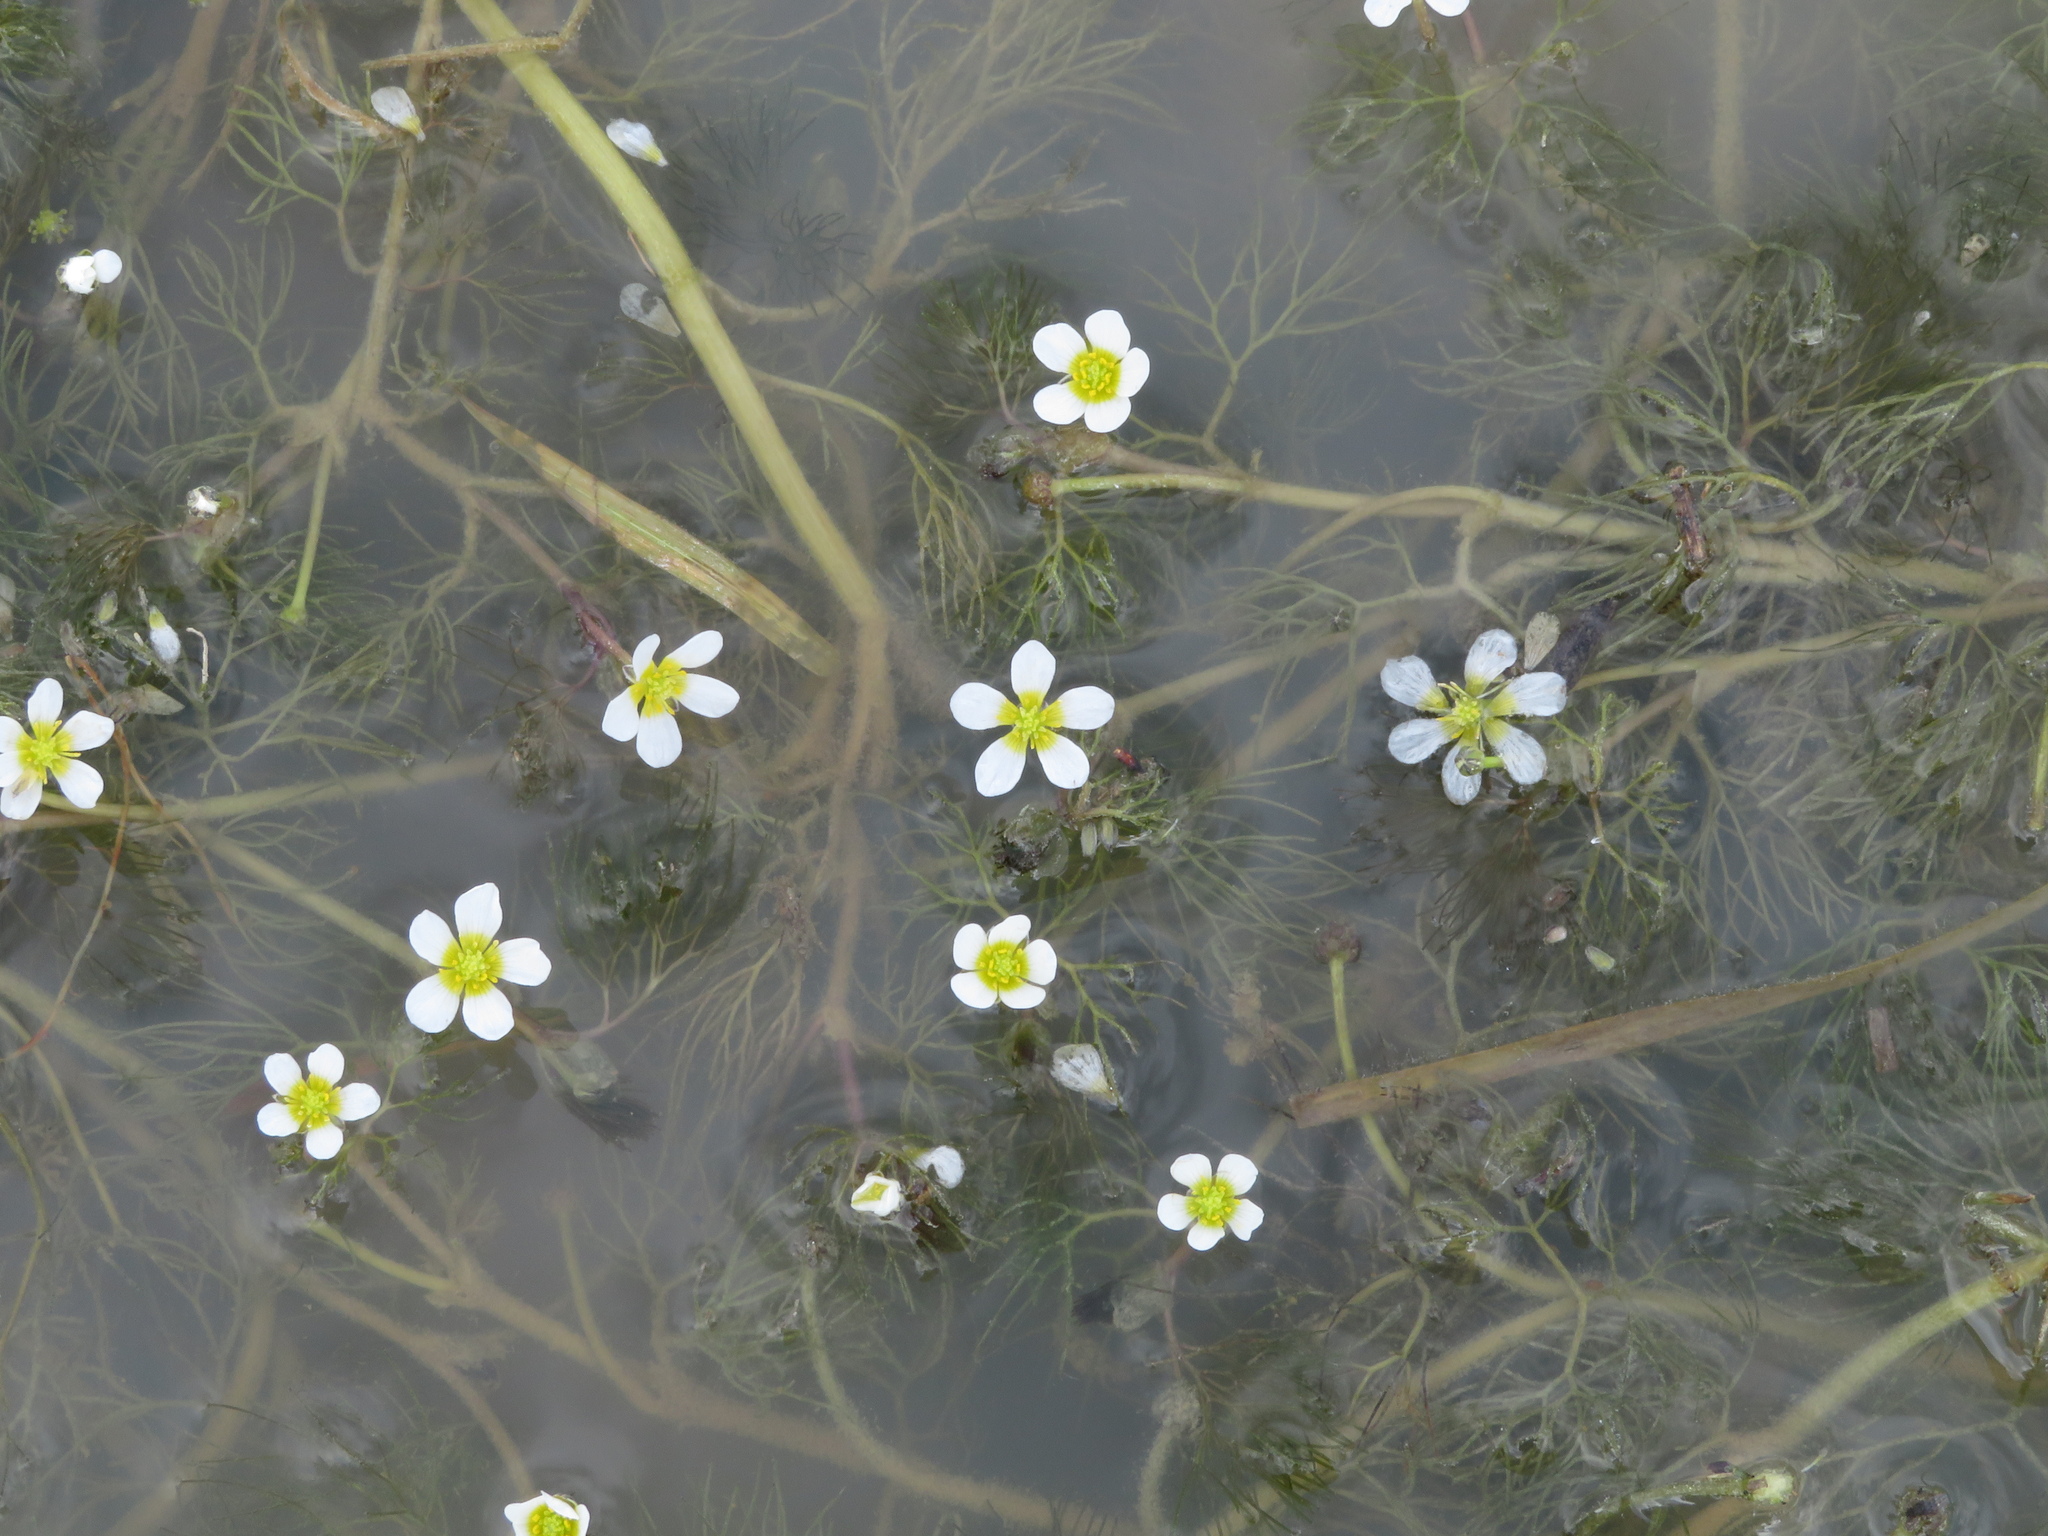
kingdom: Plantae
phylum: Tracheophyta
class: Magnoliopsida
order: Ranunculales
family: Ranunculaceae
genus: Ranunculus
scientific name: Ranunculus trichophyllus
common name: Thread-leaved water-crowfoot
